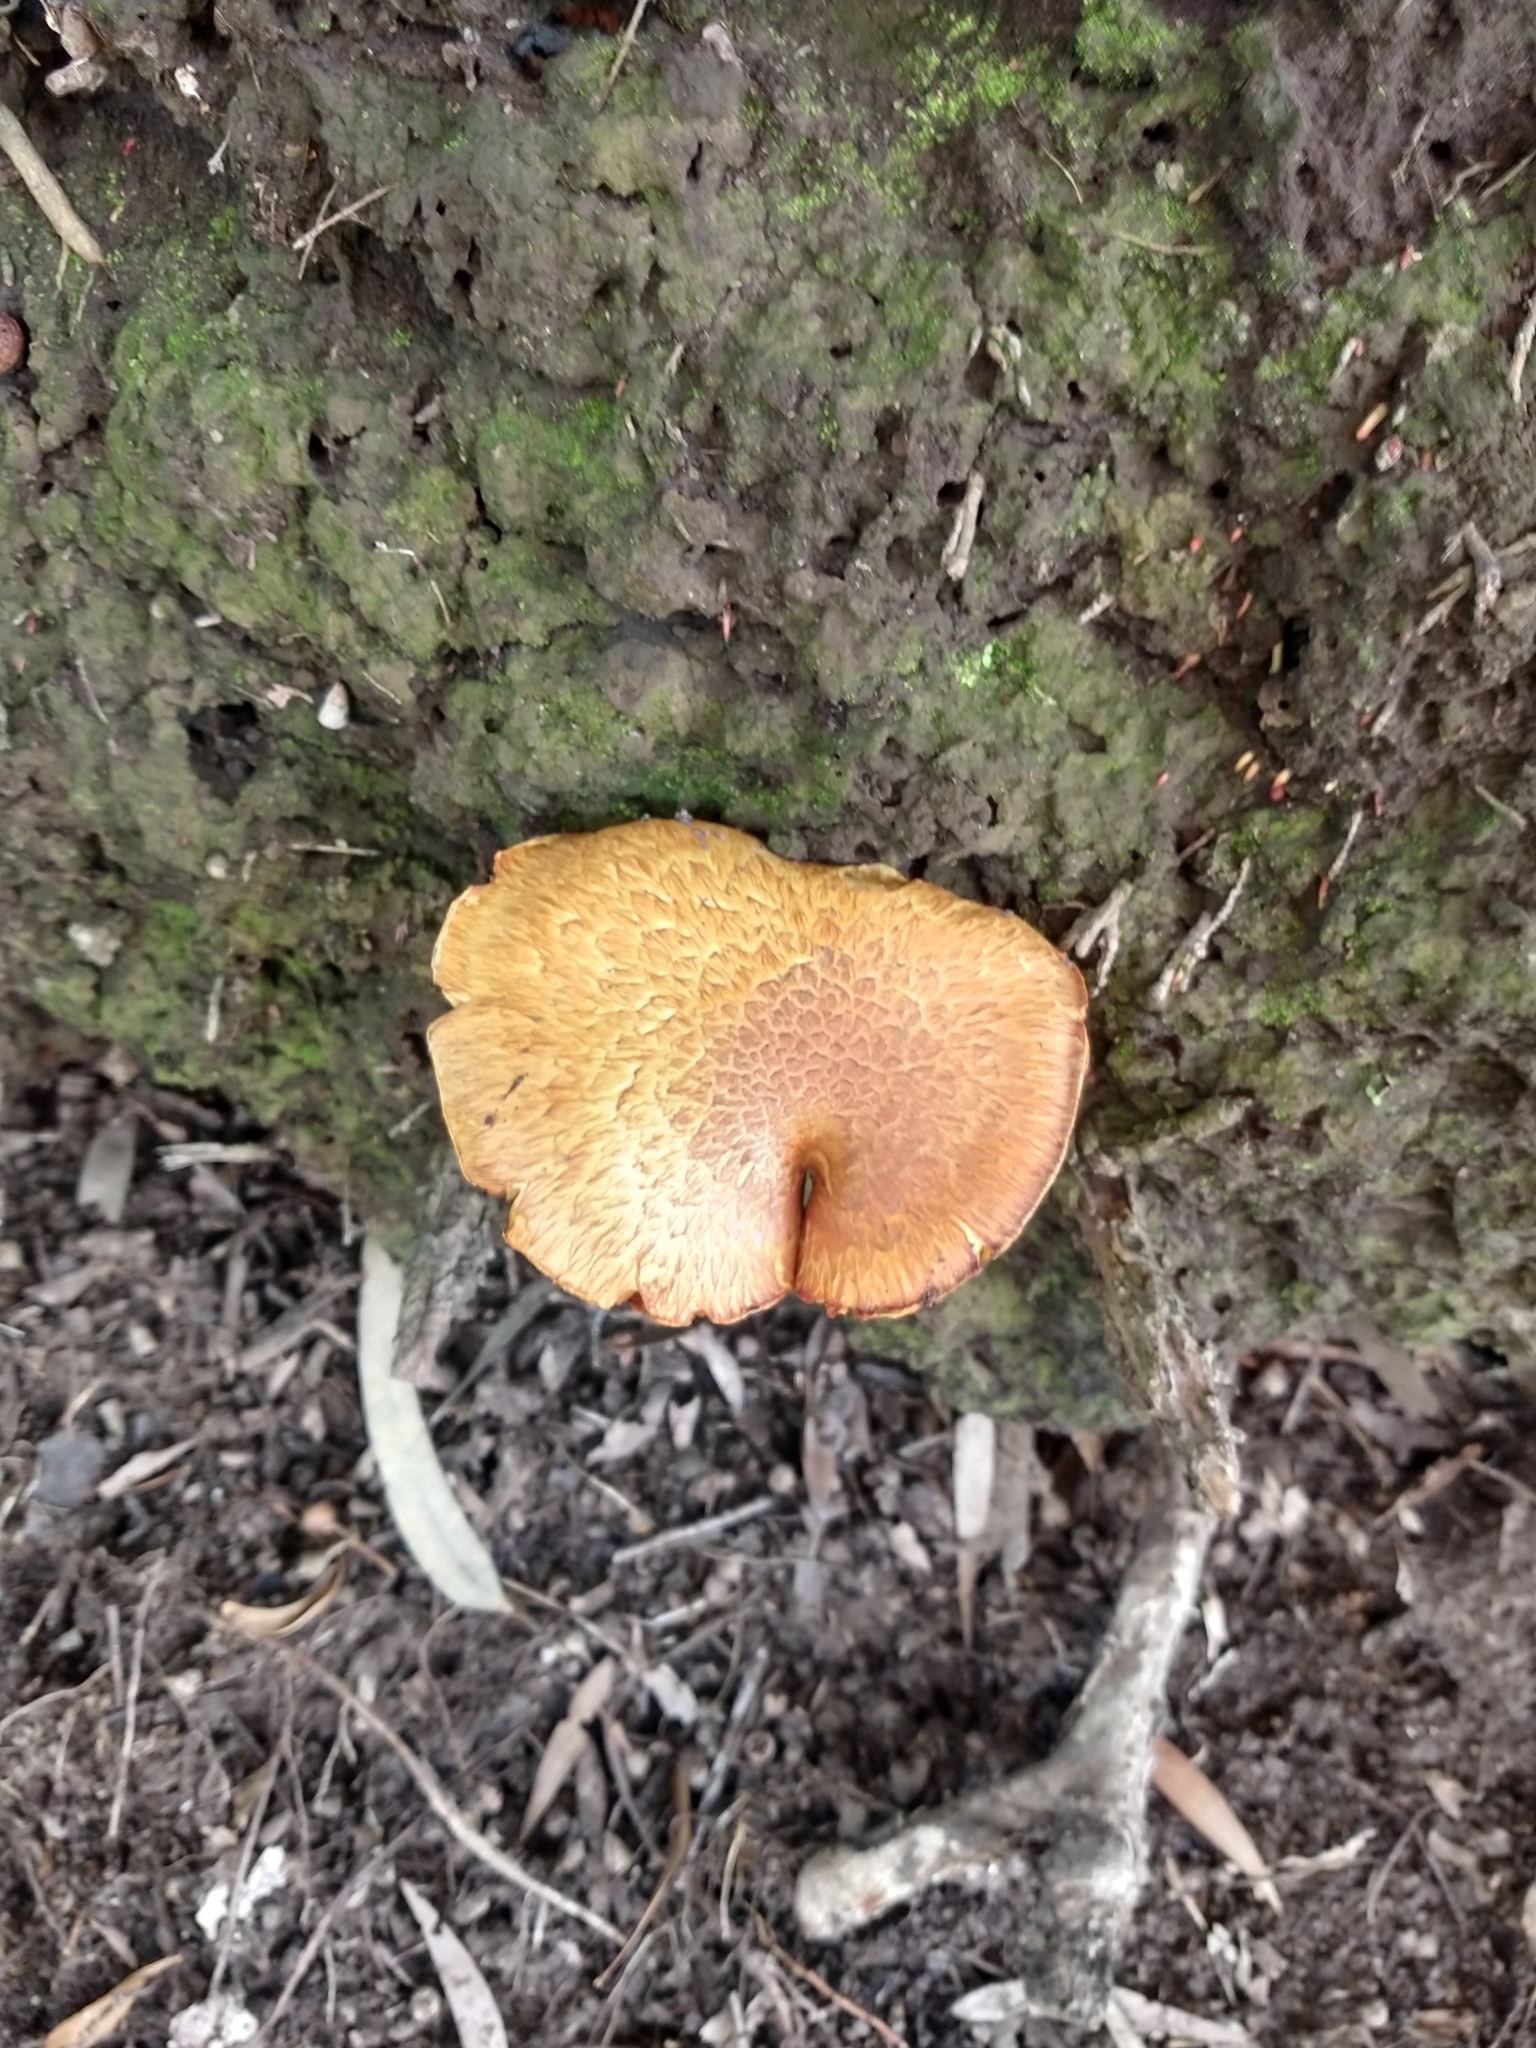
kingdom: Fungi
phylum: Basidiomycota
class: Agaricomycetes
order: Agaricales
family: Hymenogastraceae
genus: Gymnopilus
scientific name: Gymnopilus junonius
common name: Spectacular rustgill
